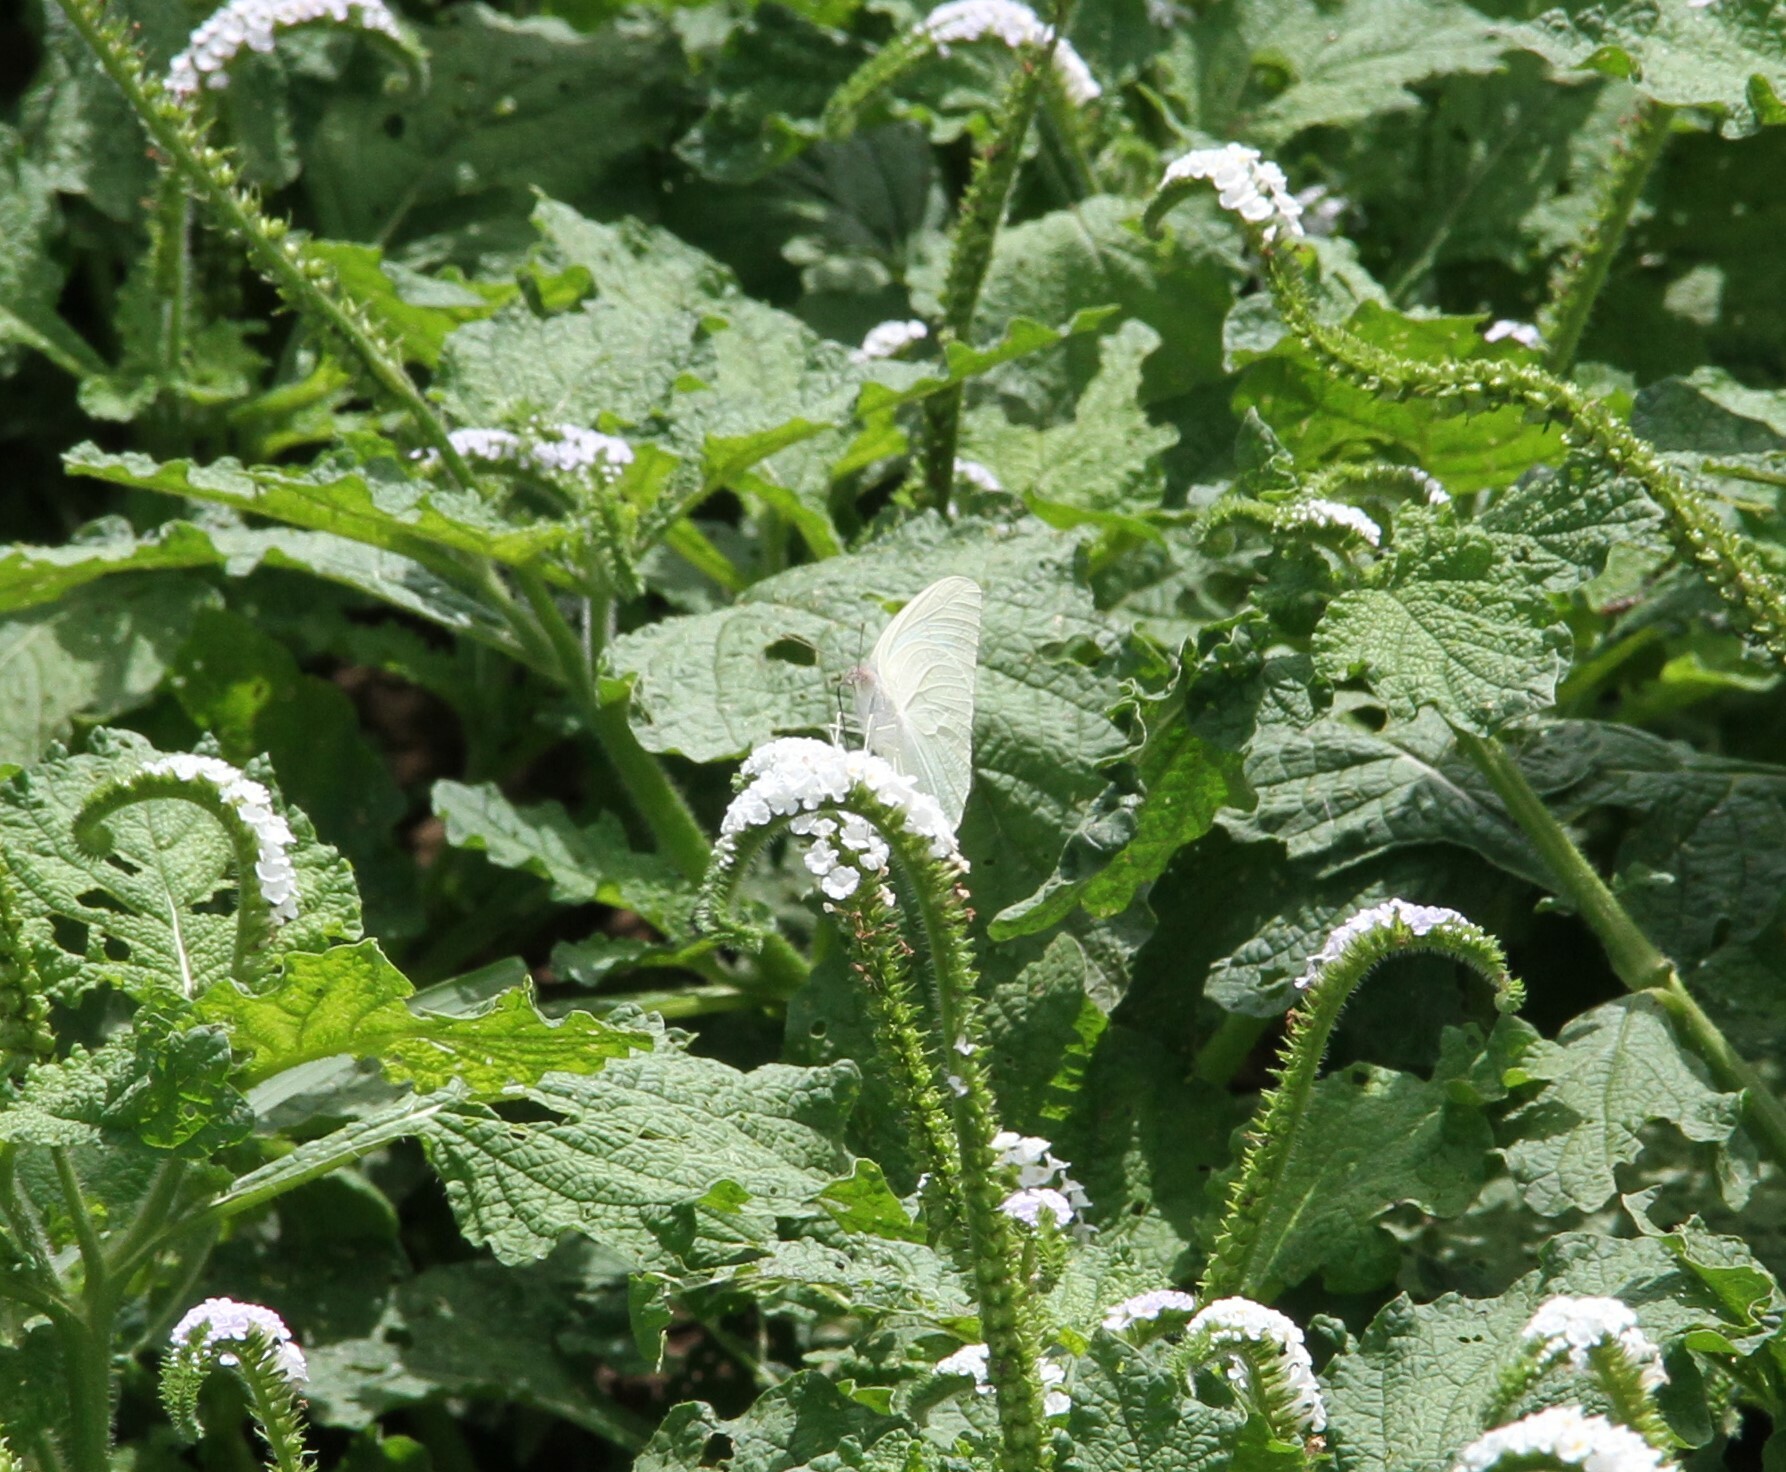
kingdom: Animalia
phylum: Arthropoda
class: Insecta
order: Lepidoptera
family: Pieridae
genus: Catopsilia
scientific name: Catopsilia florella
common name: African migrant
